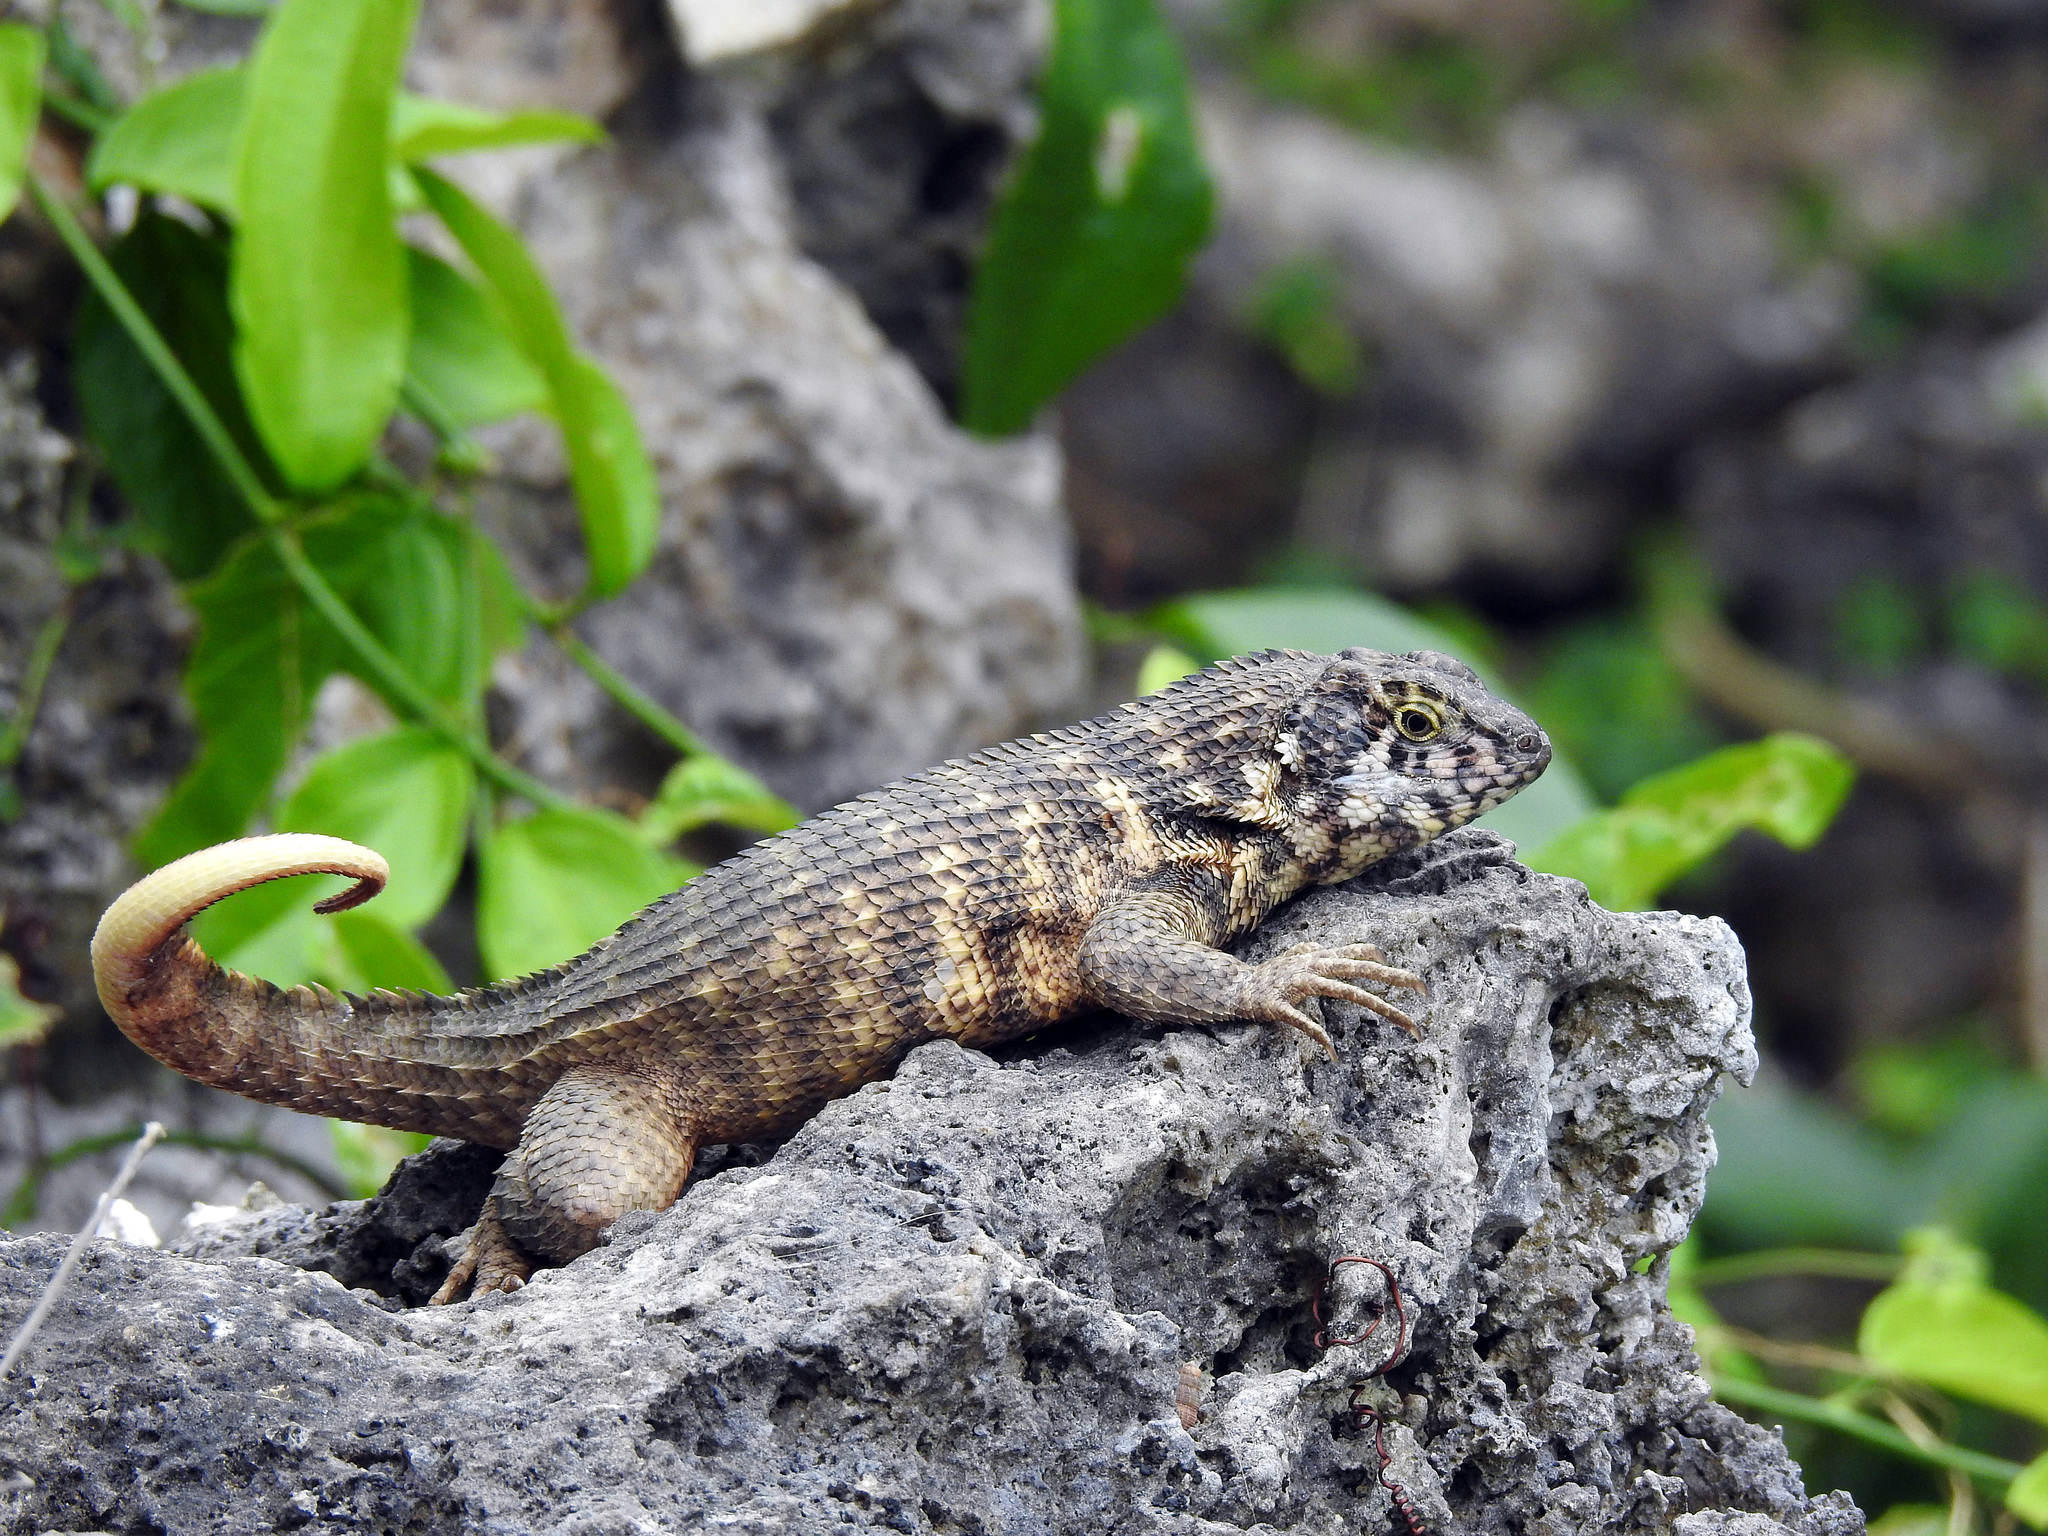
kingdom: Animalia
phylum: Chordata
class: Squamata
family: Leiocephalidae
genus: Leiocephalus
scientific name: Leiocephalus carinatus
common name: Northern curly-tailed lizard
